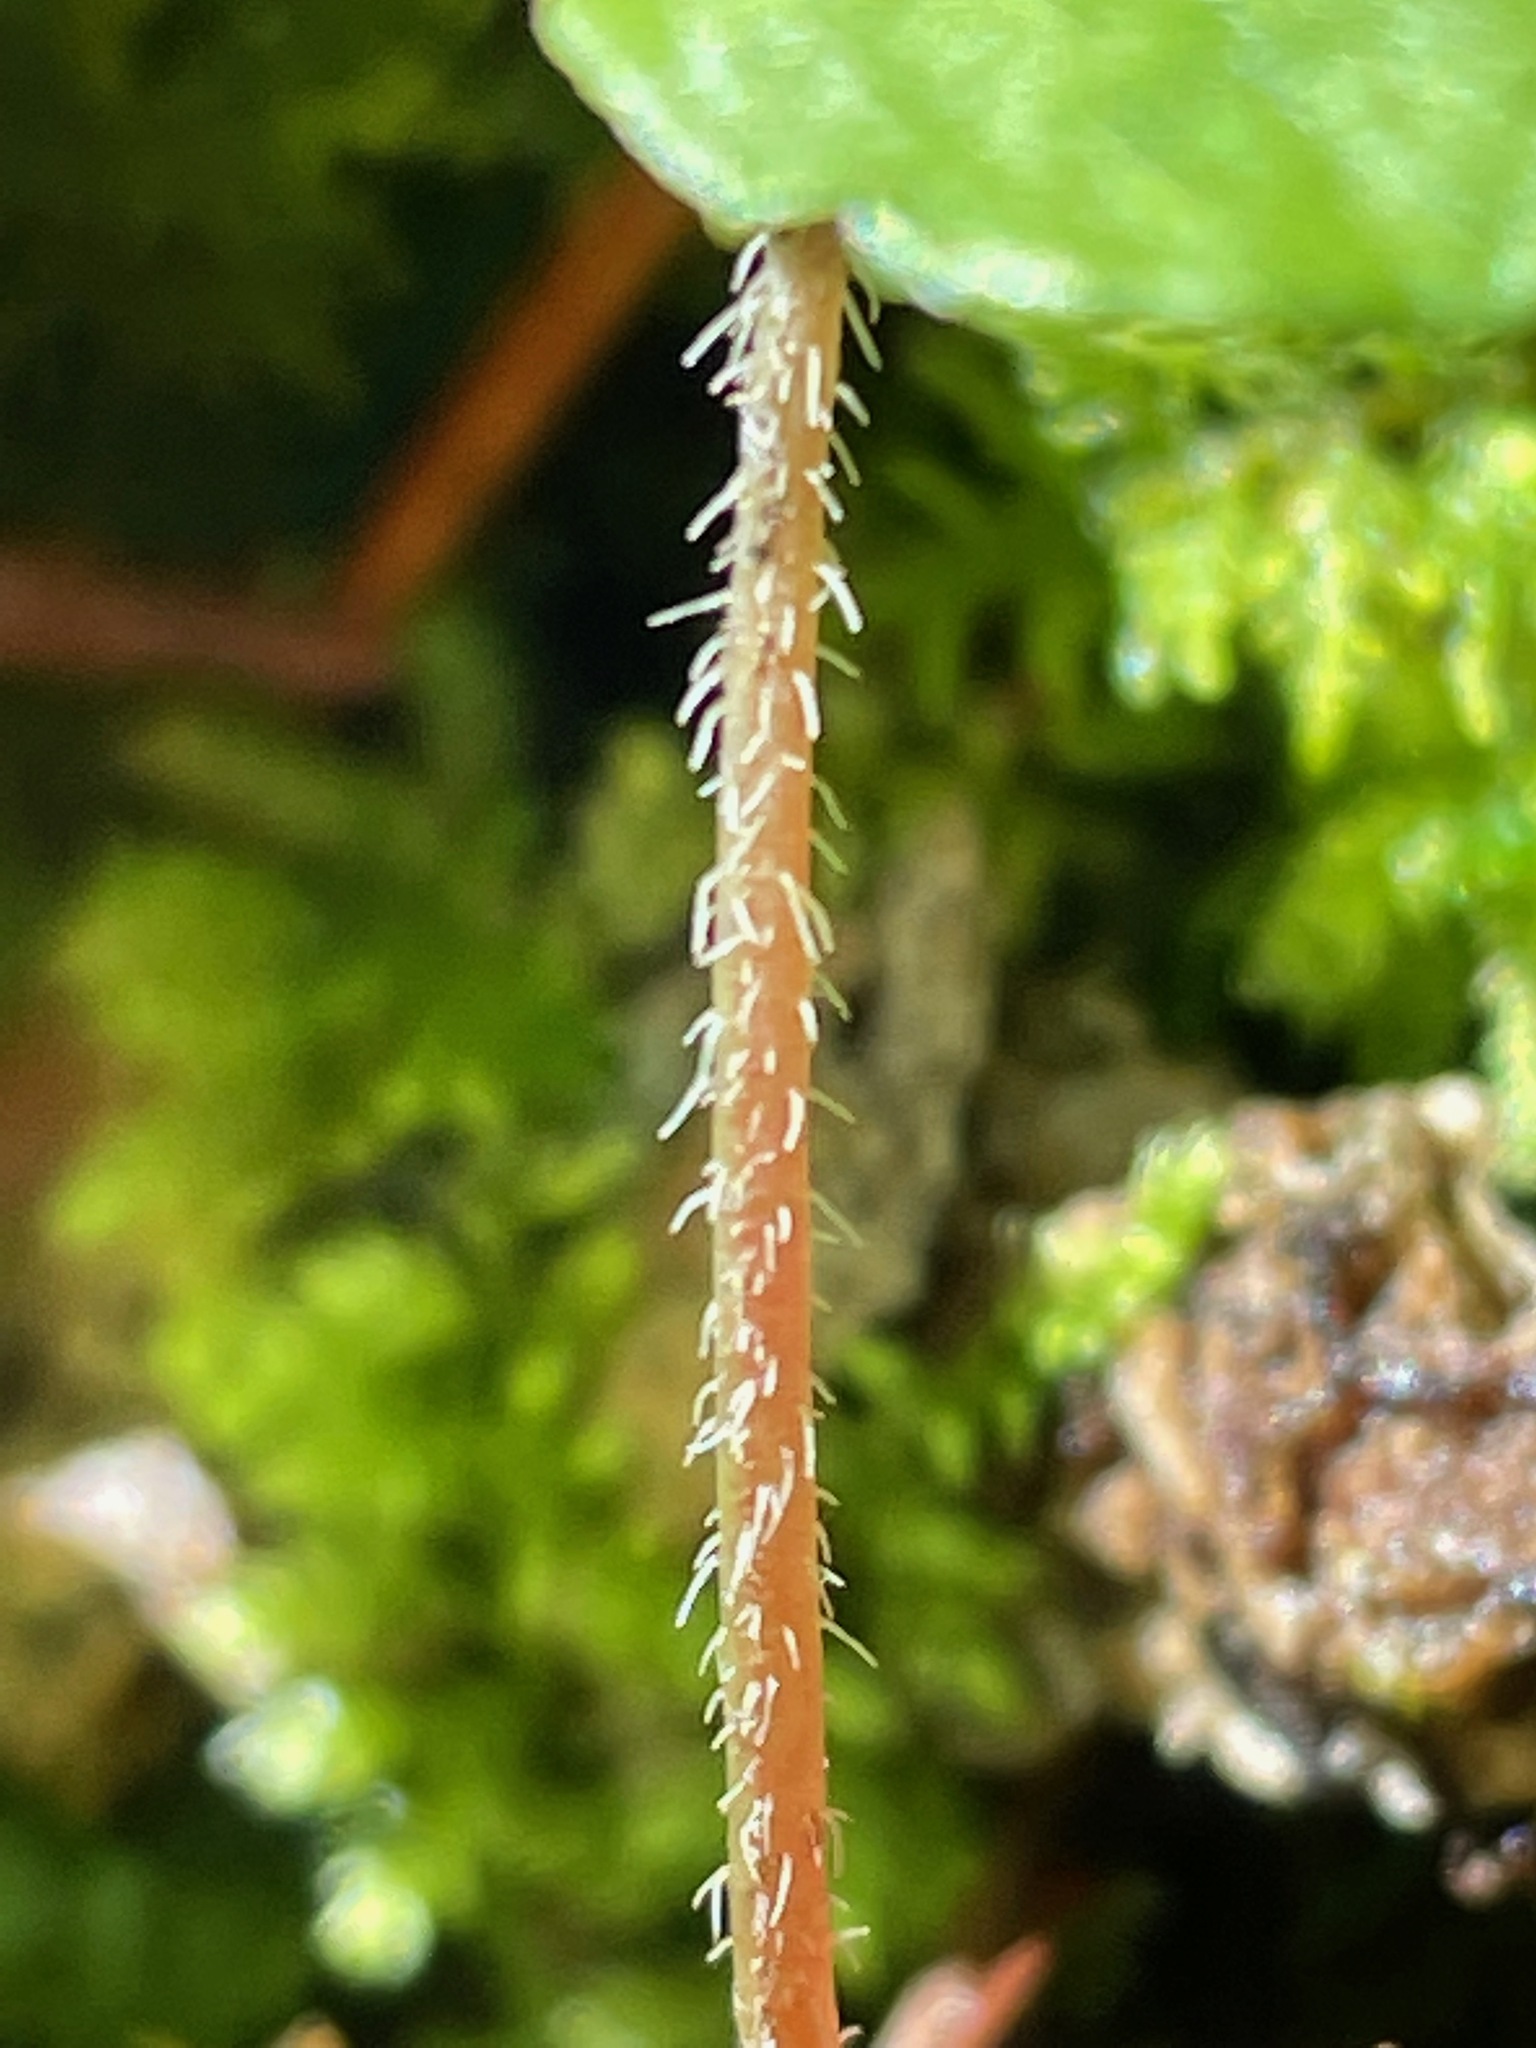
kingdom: Plantae
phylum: Tracheophyta
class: Magnoliopsida
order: Saxifragales
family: Saxifragaceae
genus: Mitella
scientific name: Mitella nuda
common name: Bare-stemmed bishop's-cap
